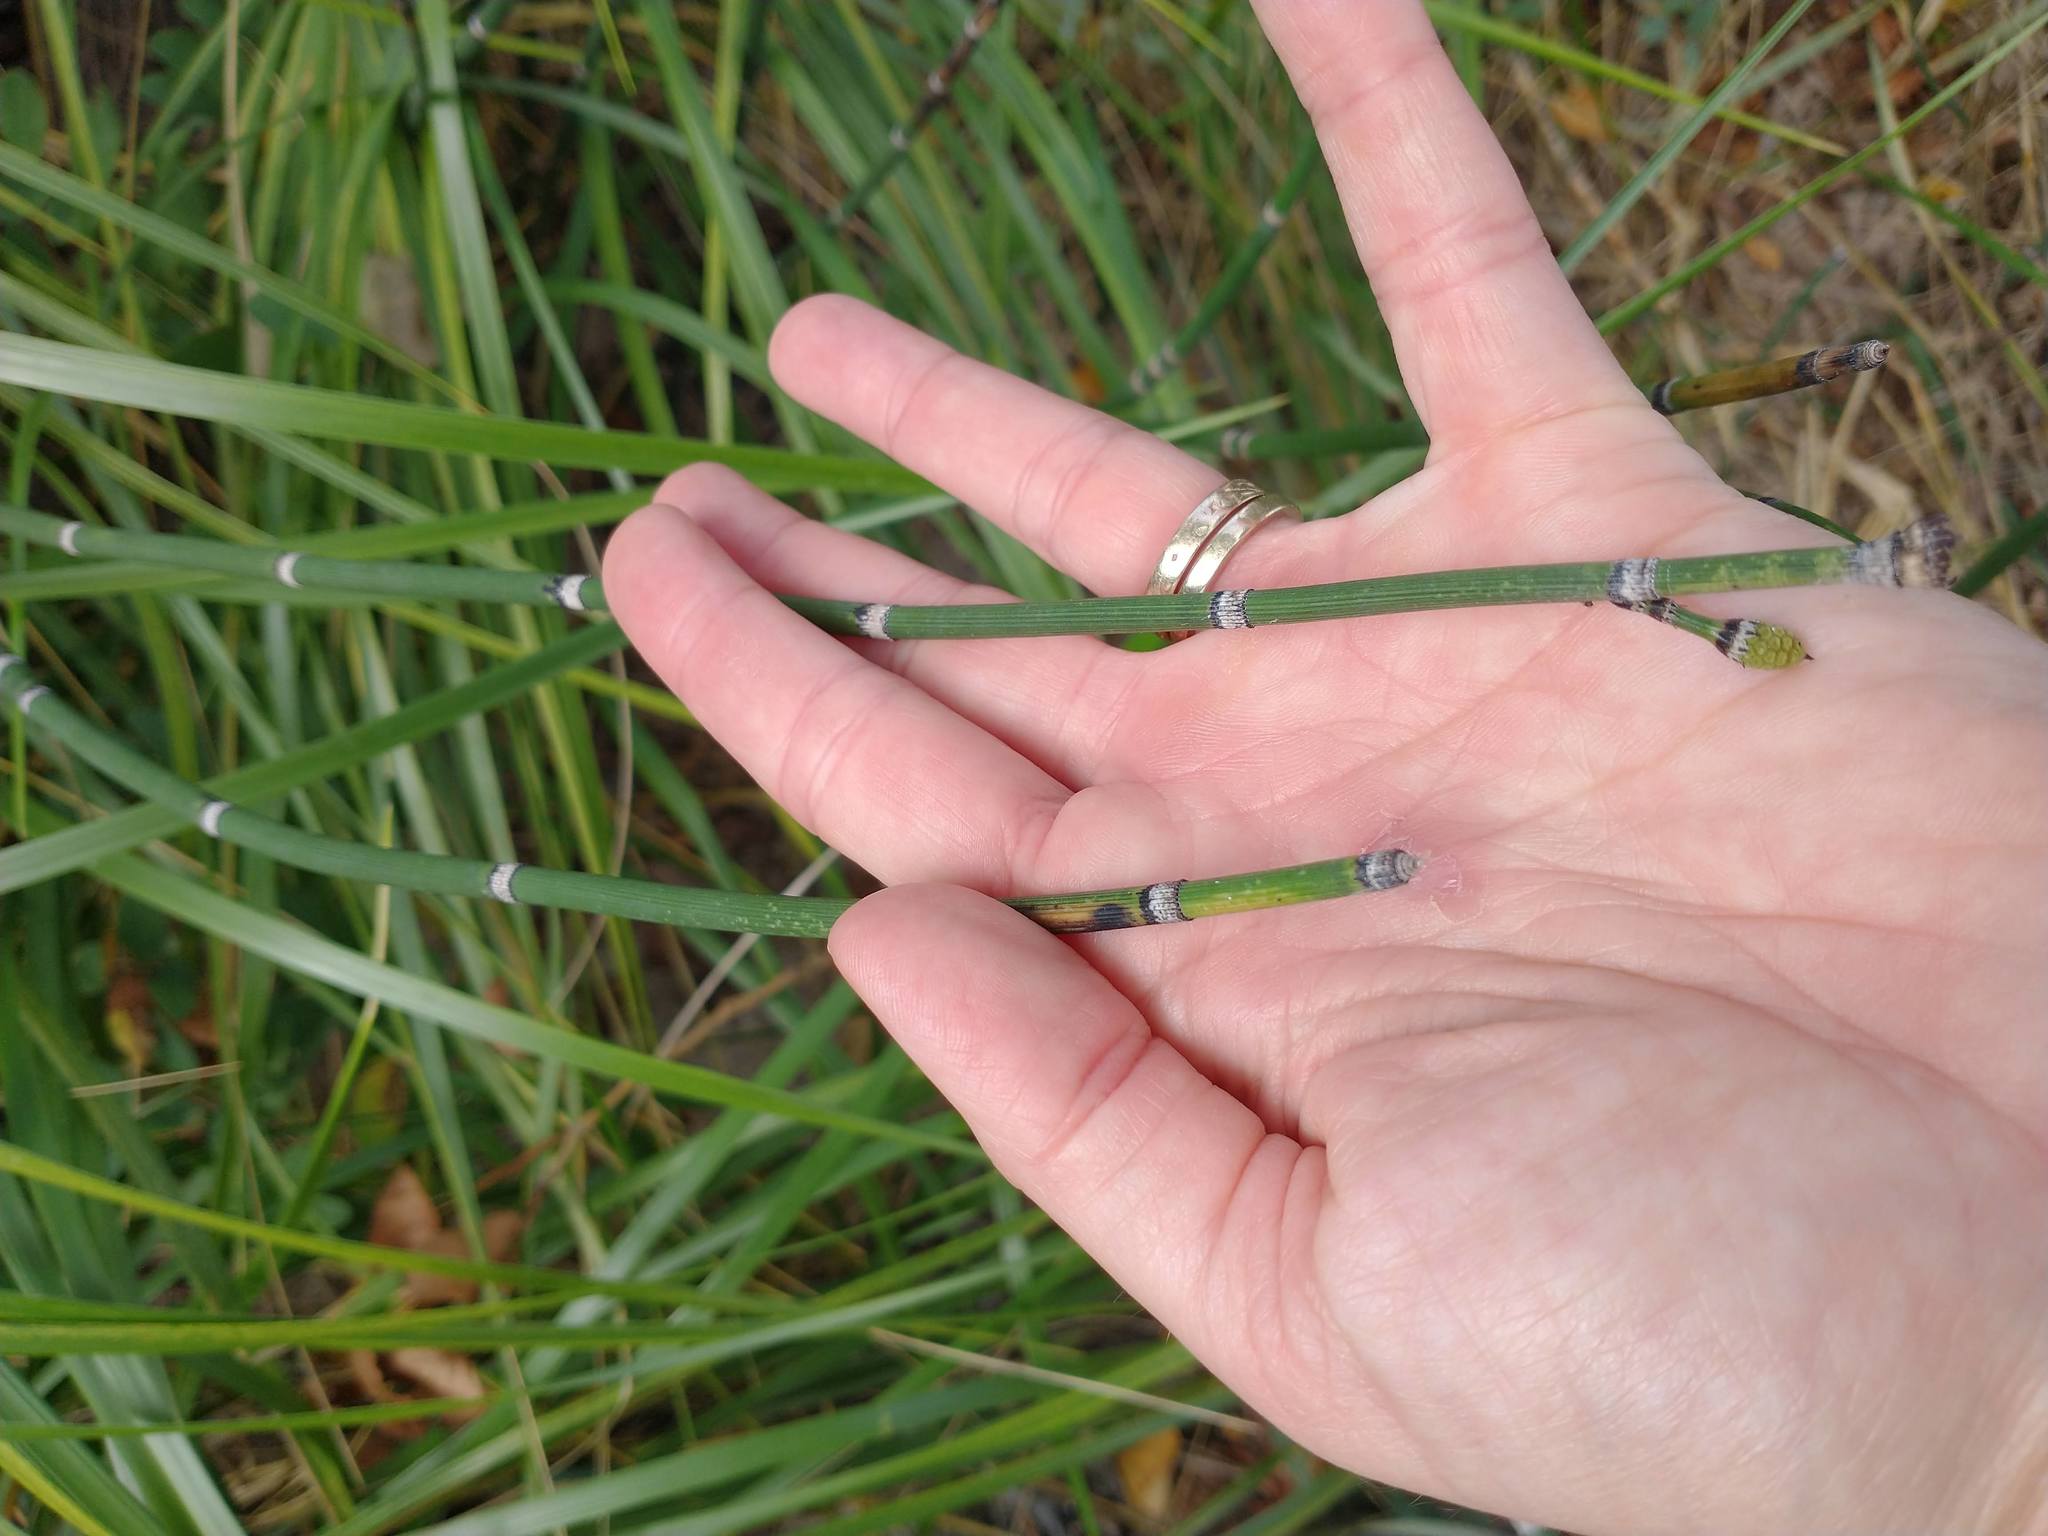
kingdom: Plantae
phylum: Tracheophyta
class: Polypodiopsida
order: Equisetales
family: Equisetaceae
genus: Equisetum
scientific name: Equisetum hyemale
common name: Rough horsetail
